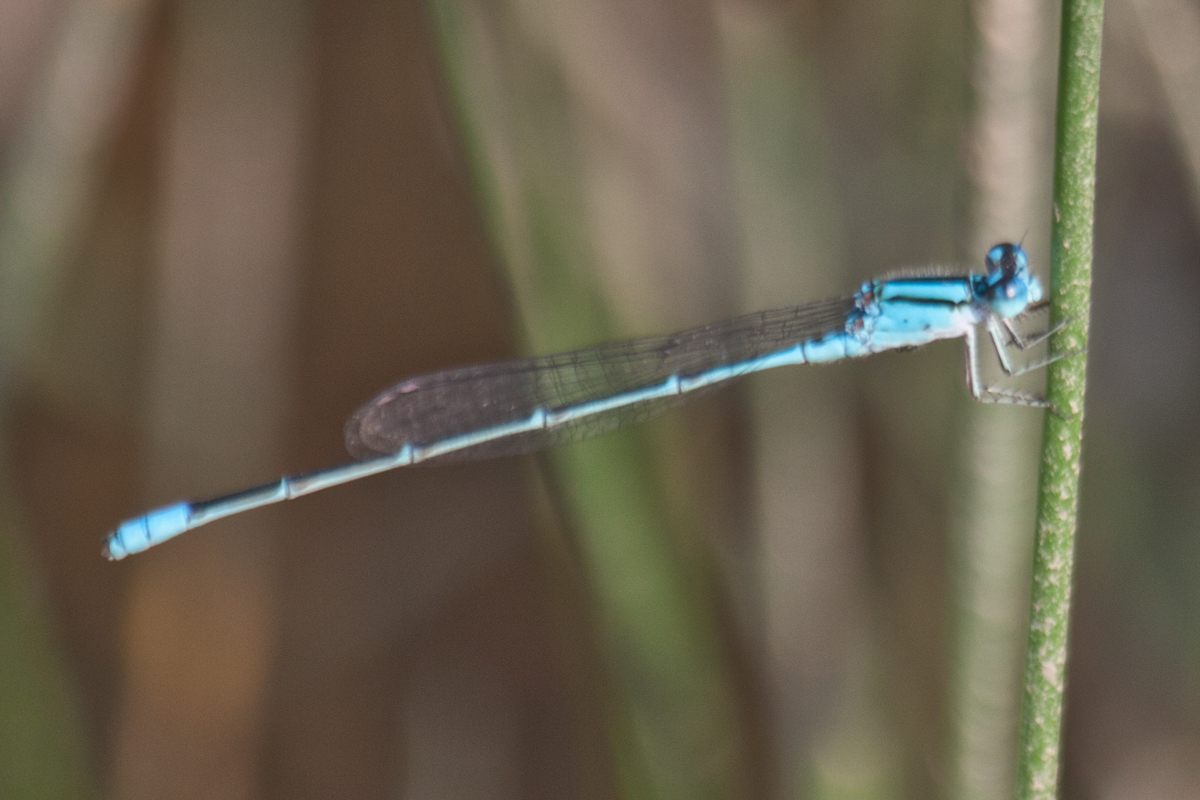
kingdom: Animalia
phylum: Arthropoda
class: Insecta
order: Odonata
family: Coenagrionidae
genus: Pseudagrion
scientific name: Pseudagrion australasiae
